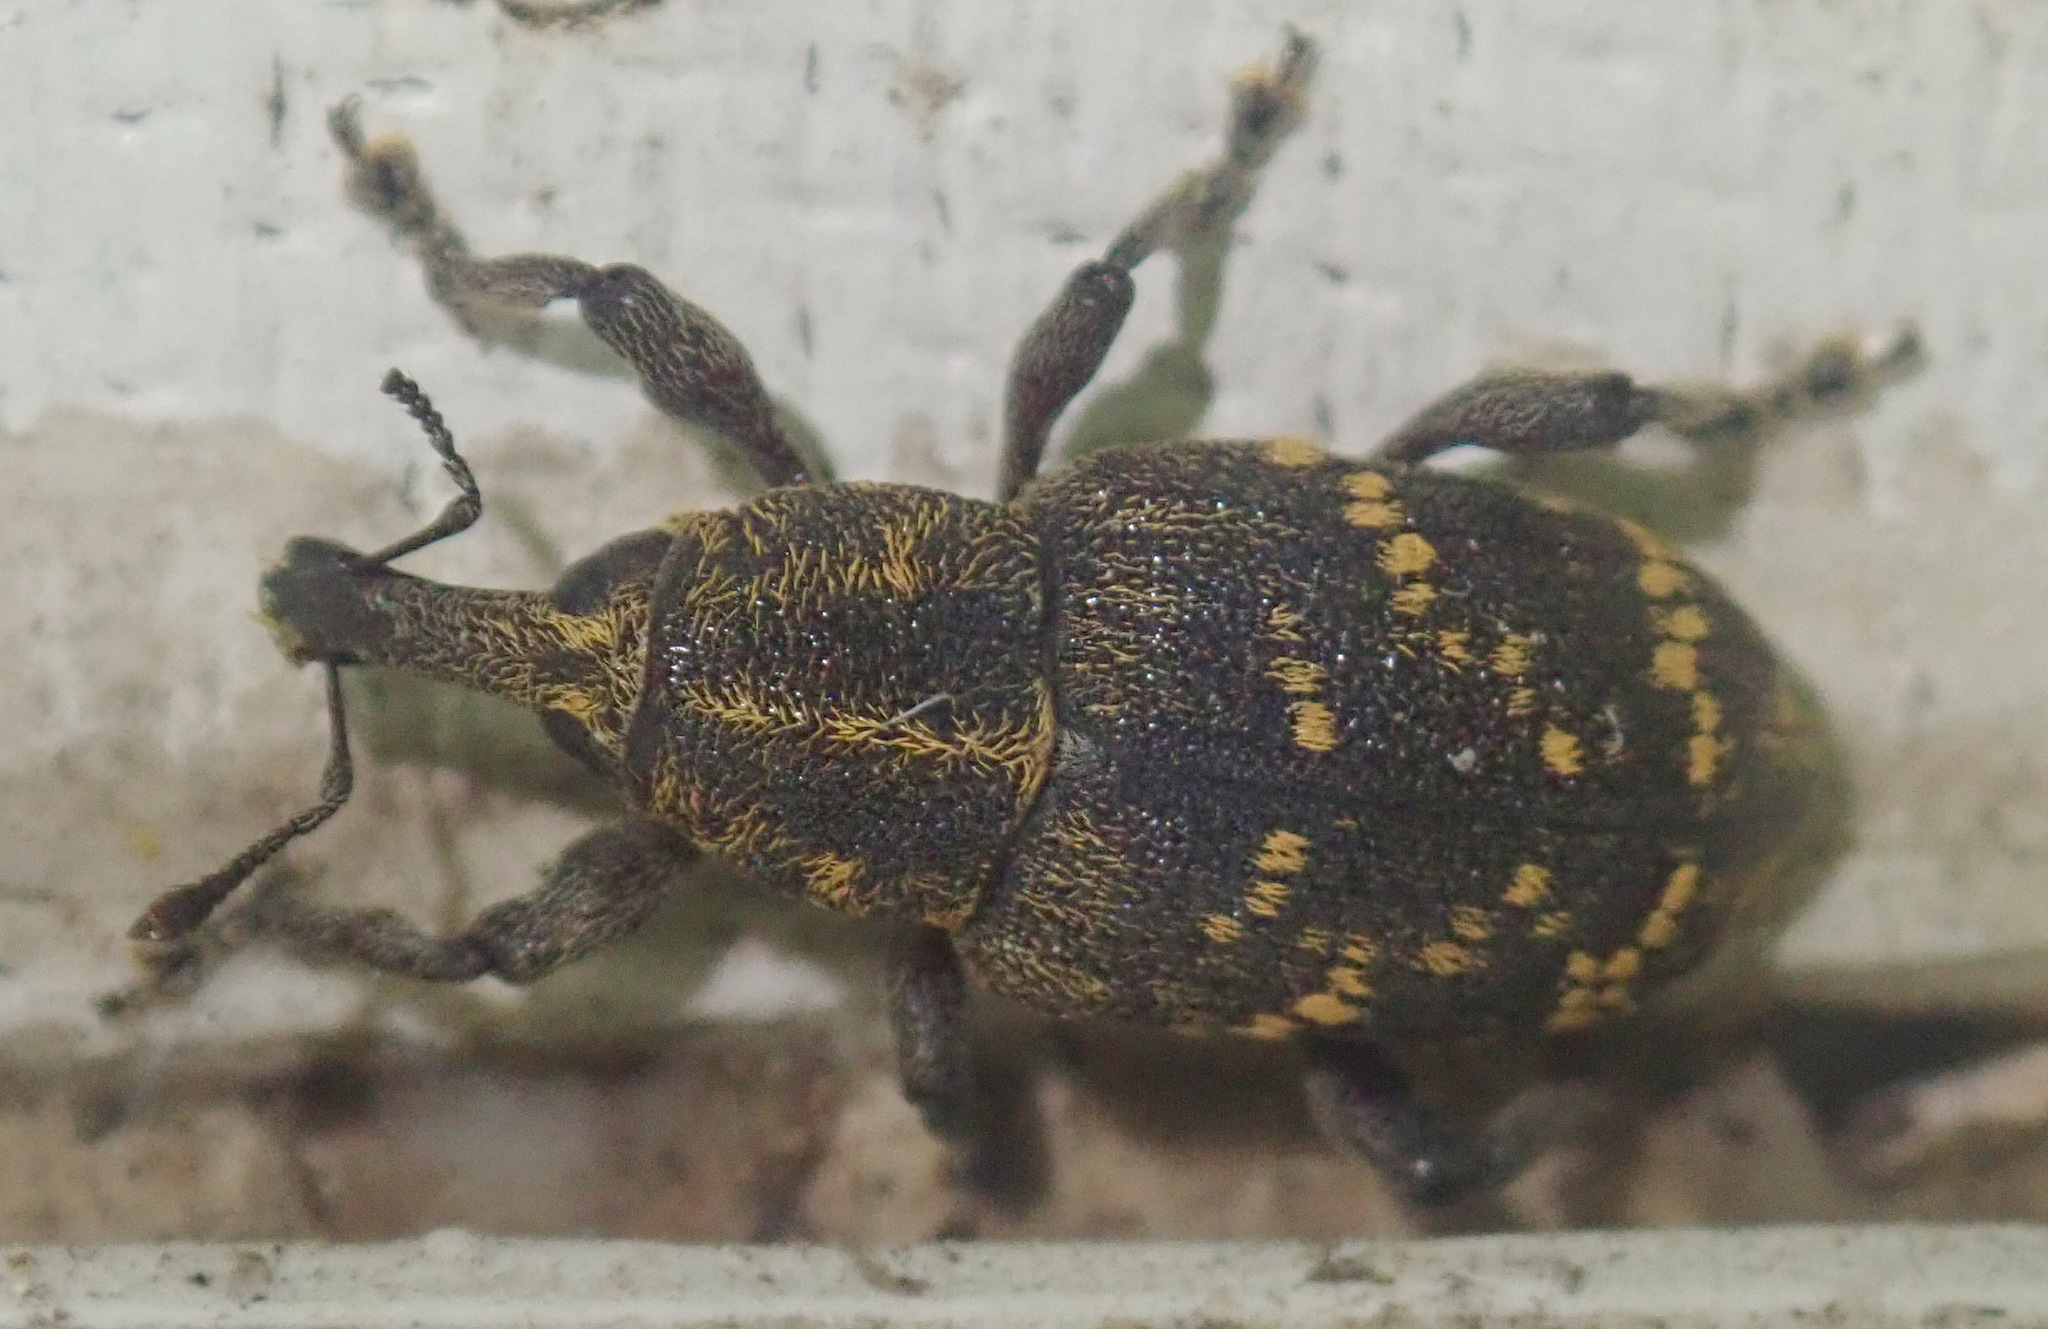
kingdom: Animalia
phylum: Arthropoda
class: Insecta
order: Coleoptera
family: Curculionidae
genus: Hylobius
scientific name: Hylobius abietis
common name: Large pine weevil
